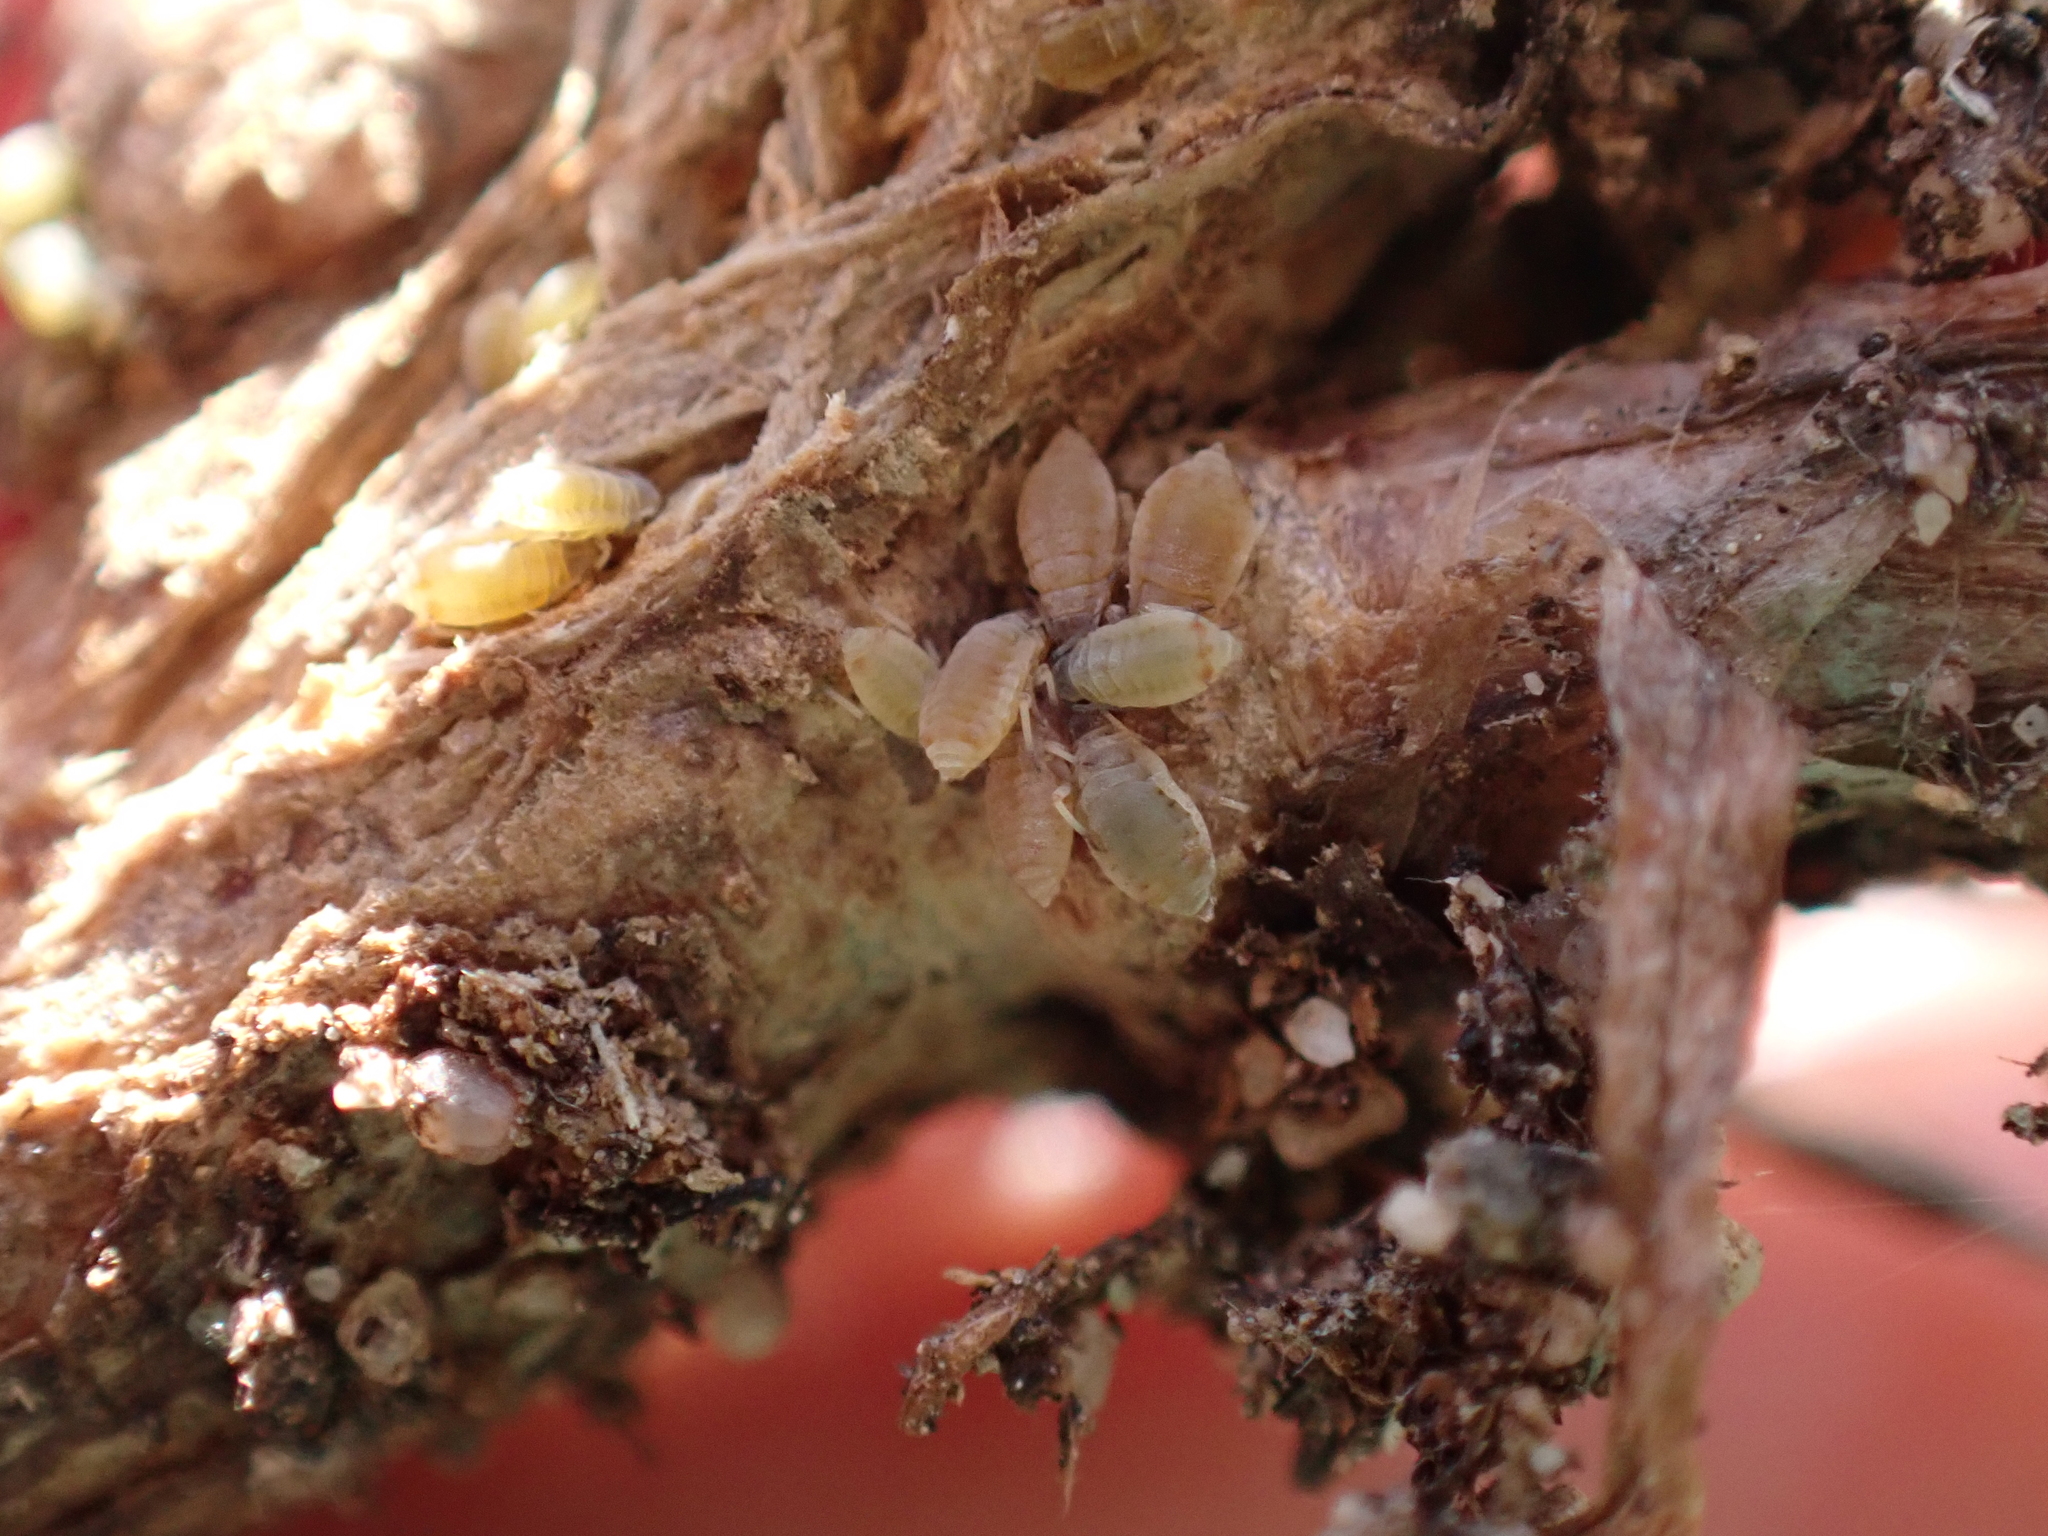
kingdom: Animalia
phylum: Arthropoda
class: Insecta
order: Hemiptera
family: Aphididae
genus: Protrama
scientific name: Protrama flavescens
